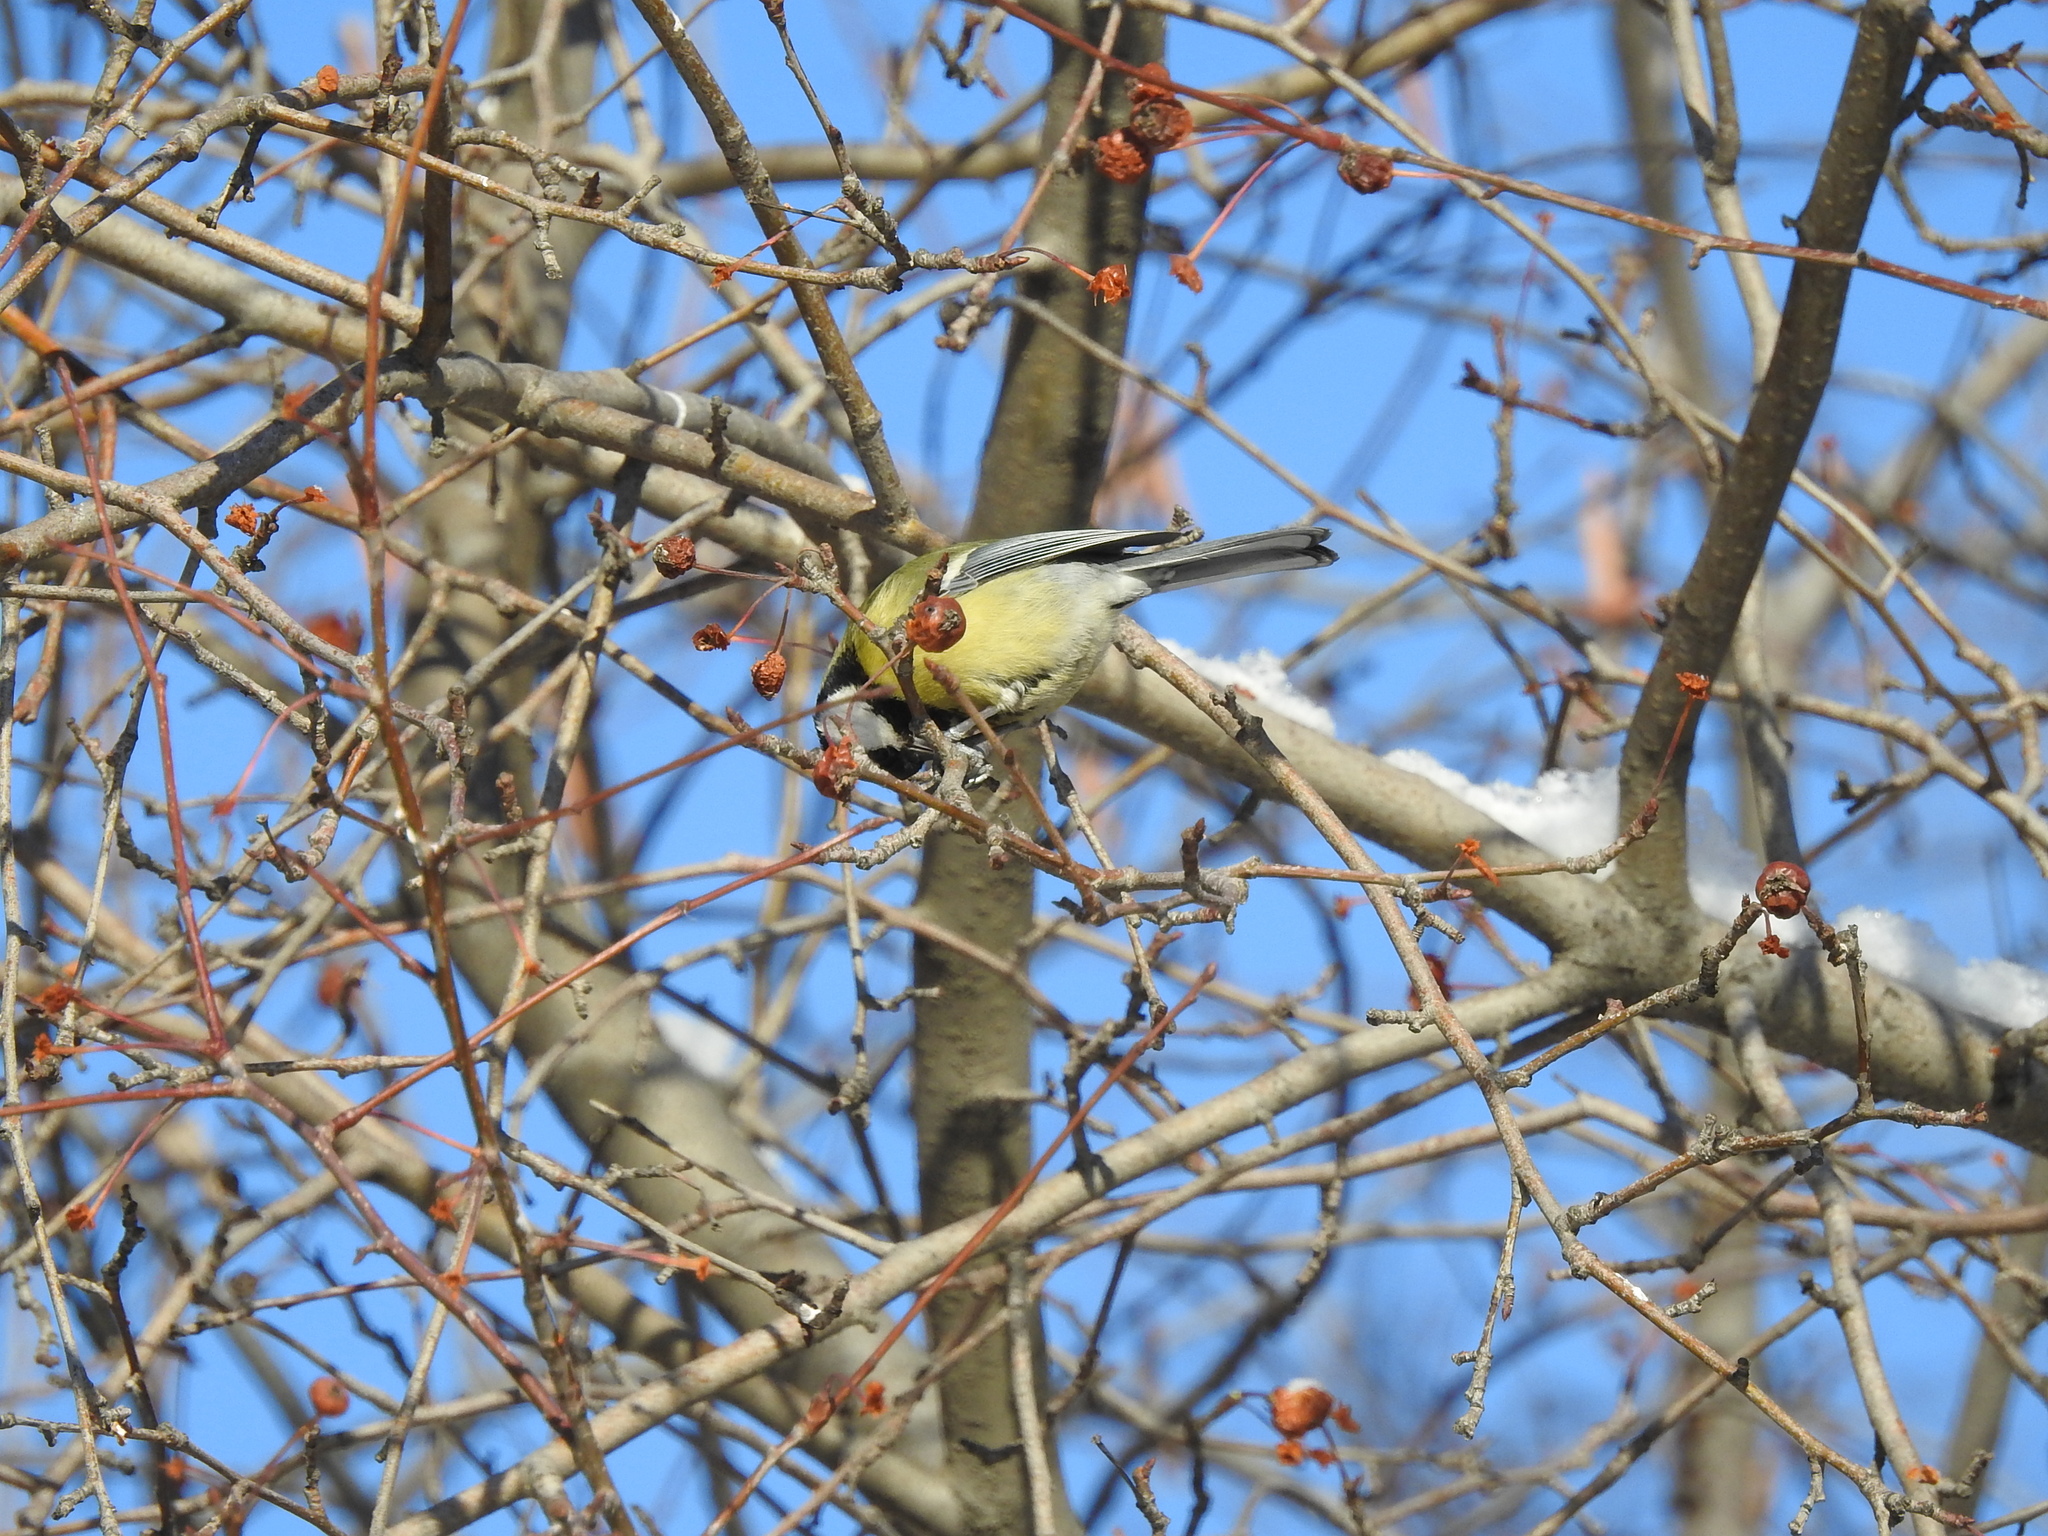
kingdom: Animalia
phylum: Chordata
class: Aves
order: Passeriformes
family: Paridae
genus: Parus
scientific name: Parus major
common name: Great tit
